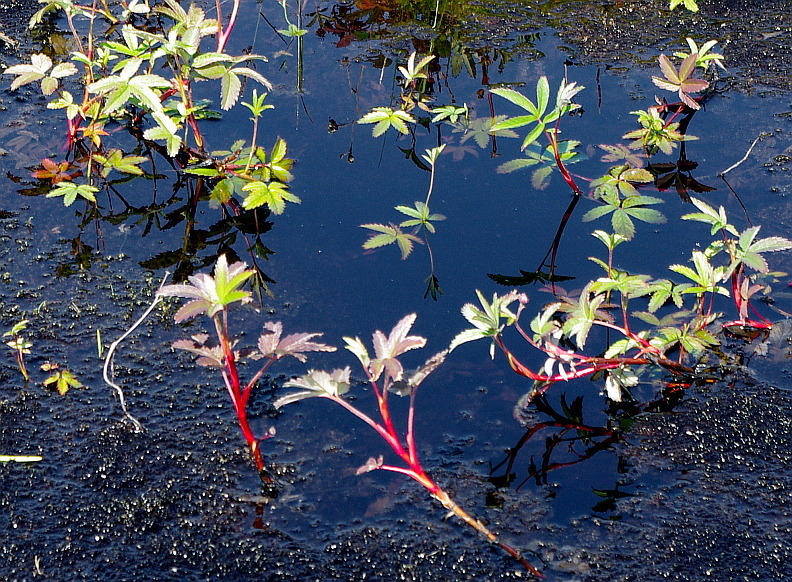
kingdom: Plantae
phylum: Tracheophyta
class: Magnoliopsida
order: Rosales
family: Rosaceae
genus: Comarum
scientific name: Comarum palustre
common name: Marsh cinquefoil
